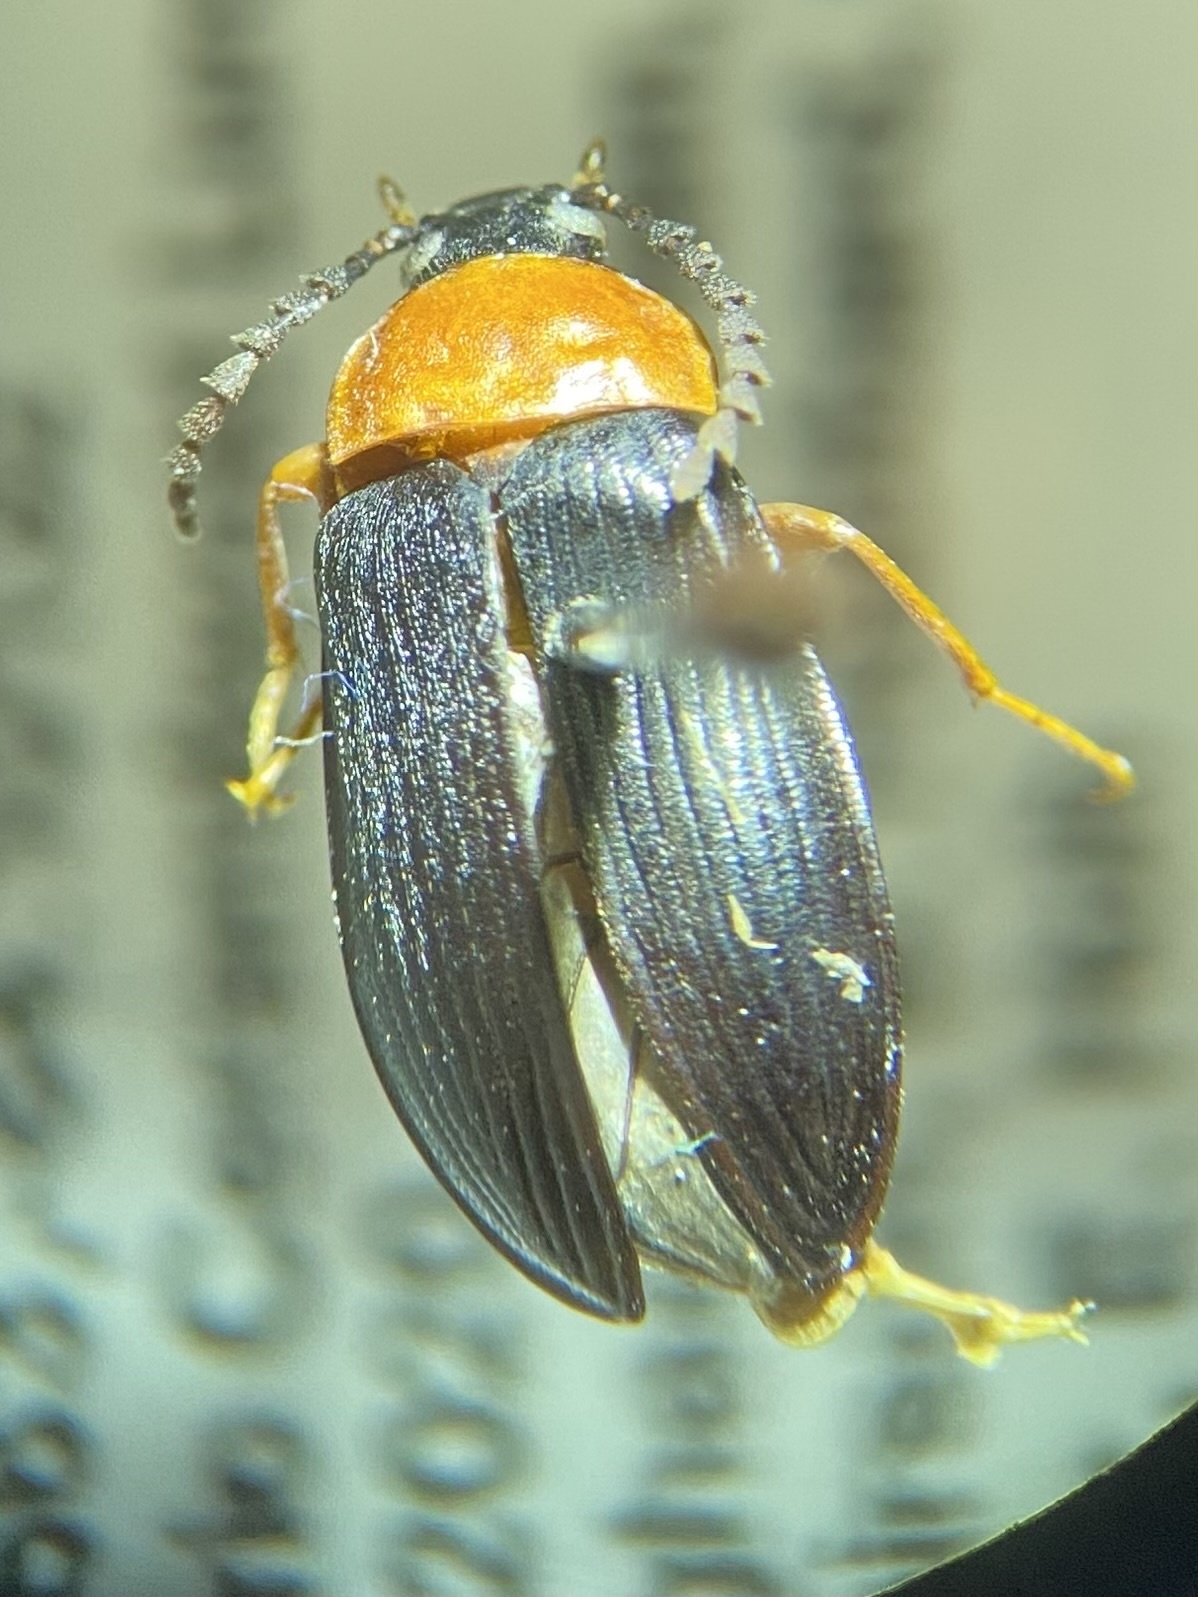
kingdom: Animalia
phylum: Arthropoda
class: Insecta
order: Coleoptera
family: Tenebrionidae
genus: Chromatia
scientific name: Chromatia amoena
